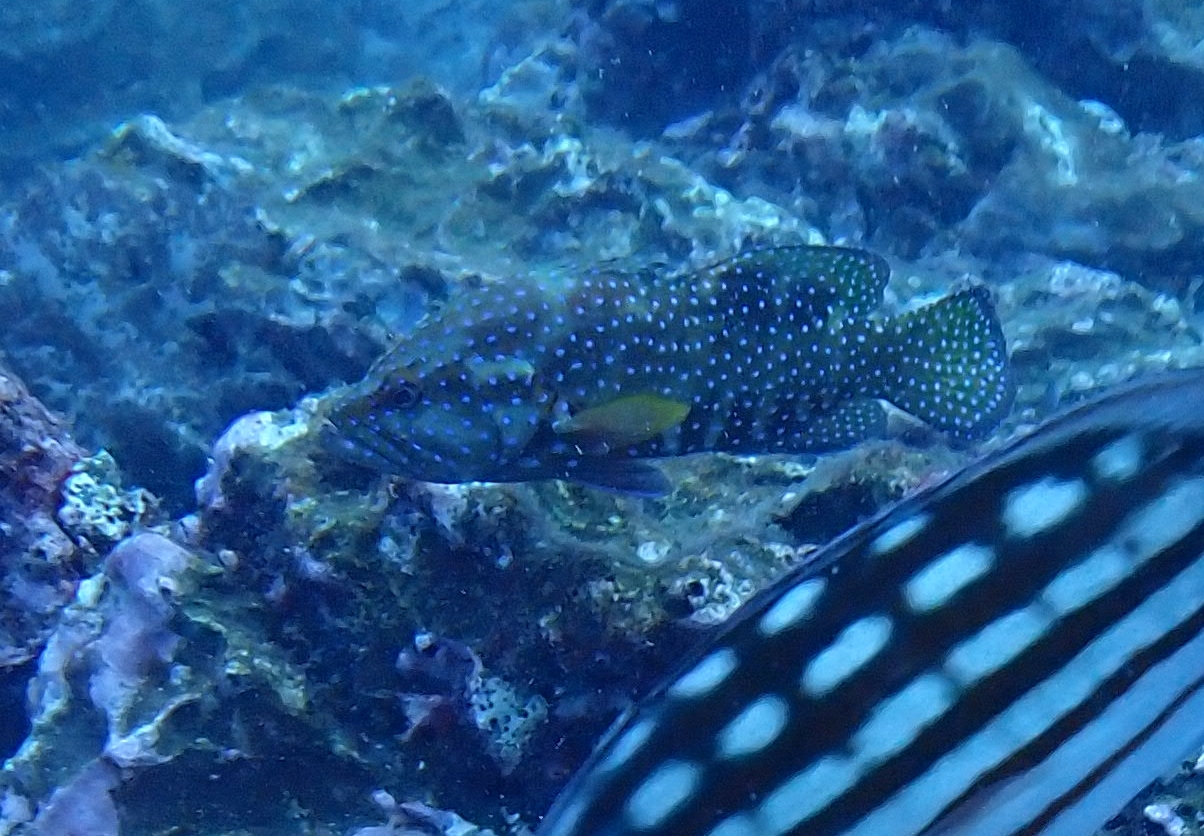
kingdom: Animalia
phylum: Chordata
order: Perciformes
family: Serranidae
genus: Cephalopholis
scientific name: Cephalopholis miniata
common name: Coral hind
